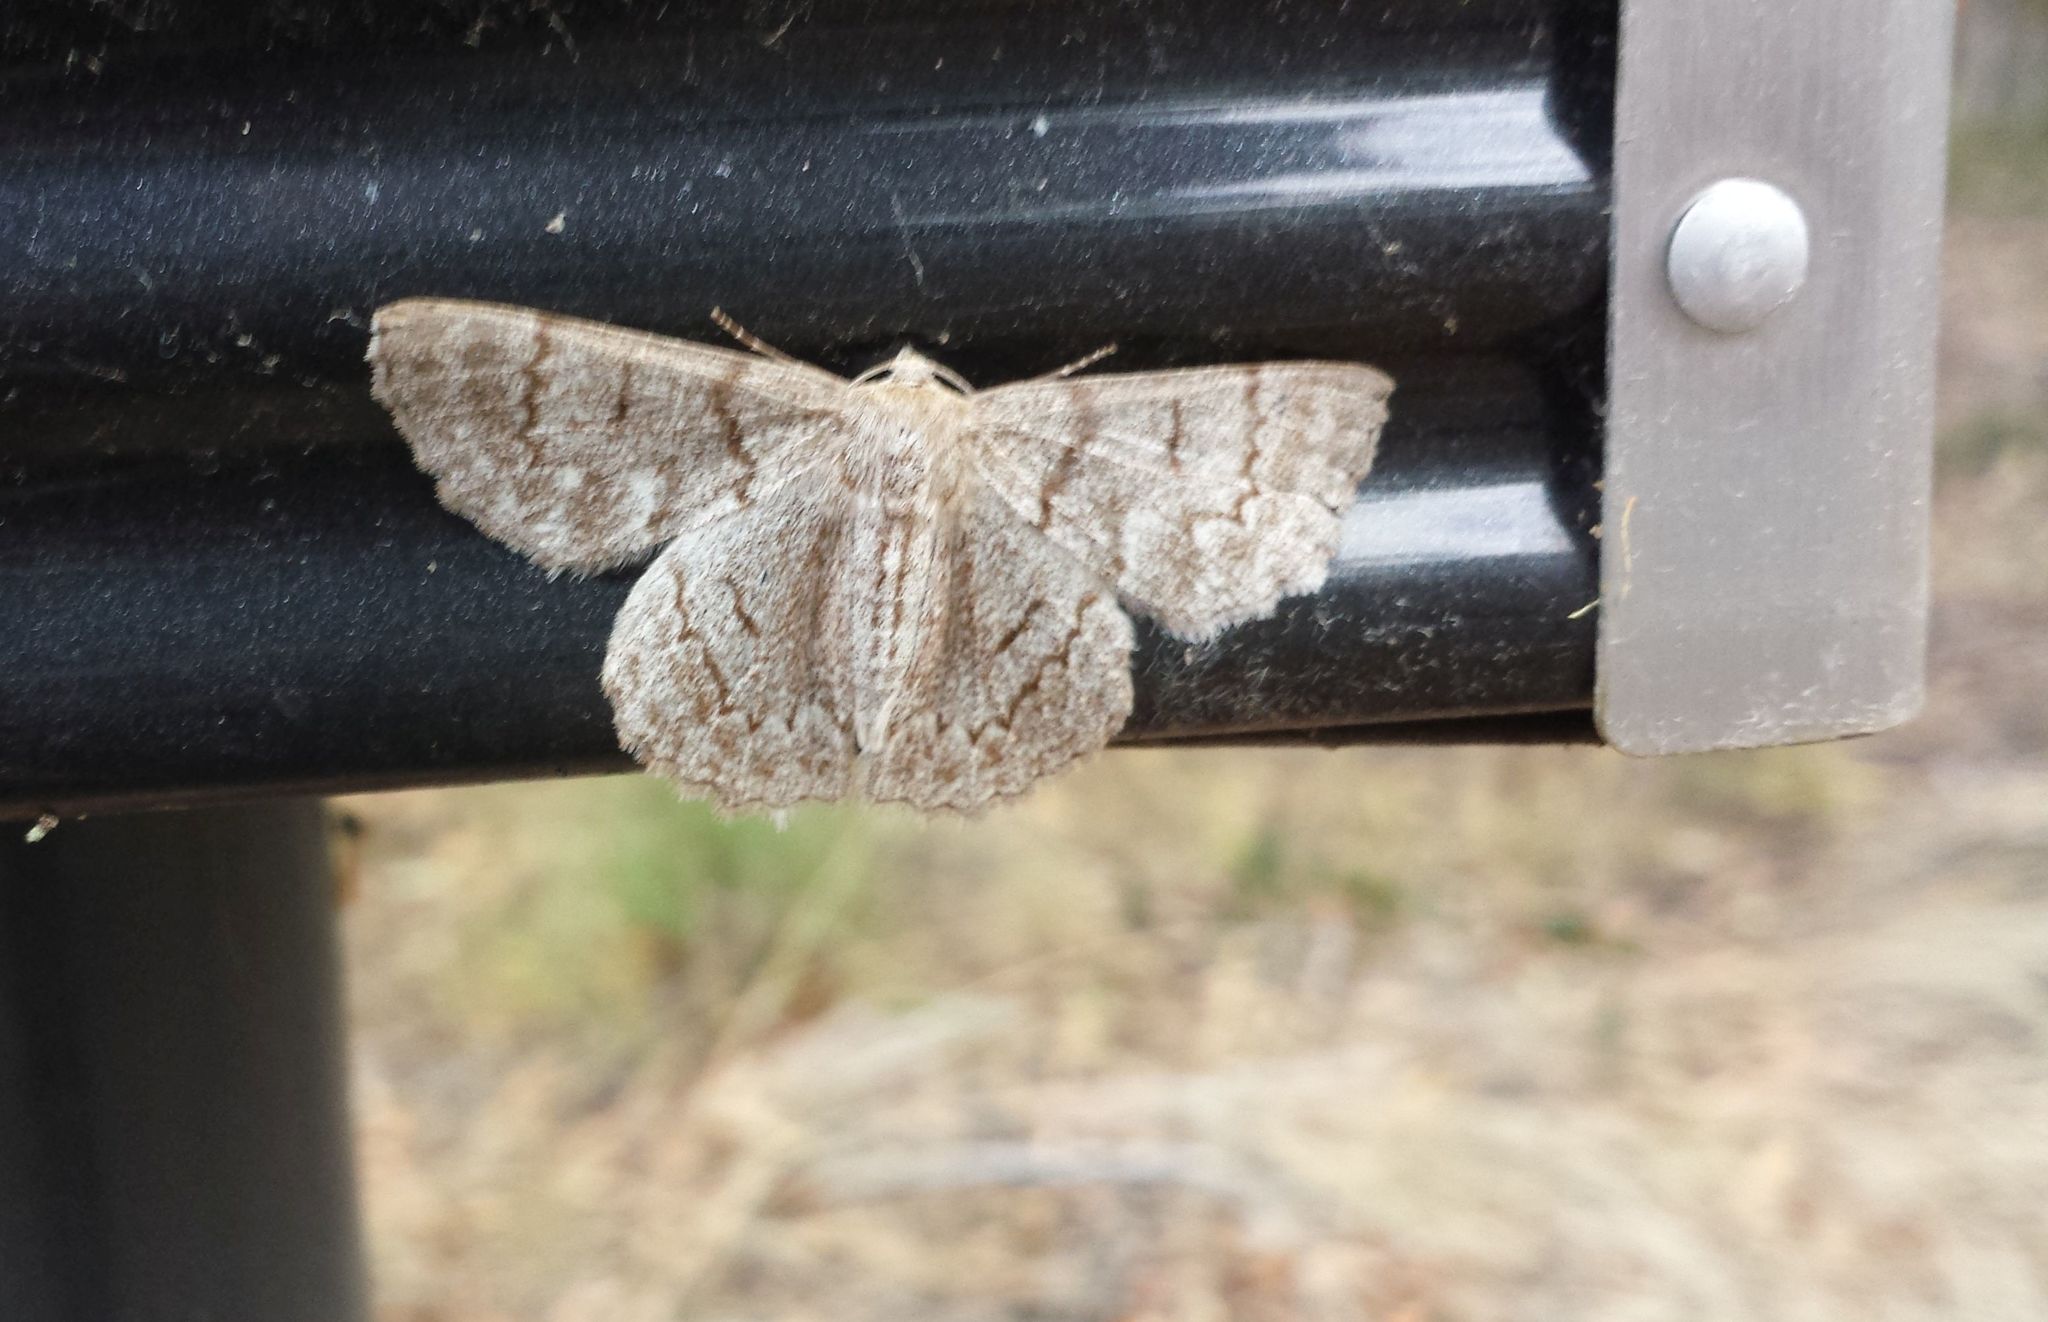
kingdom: Animalia
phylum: Arthropoda
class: Insecta
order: Lepidoptera
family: Geometridae
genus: Crypsiphona
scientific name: Crypsiphona ocultaria
